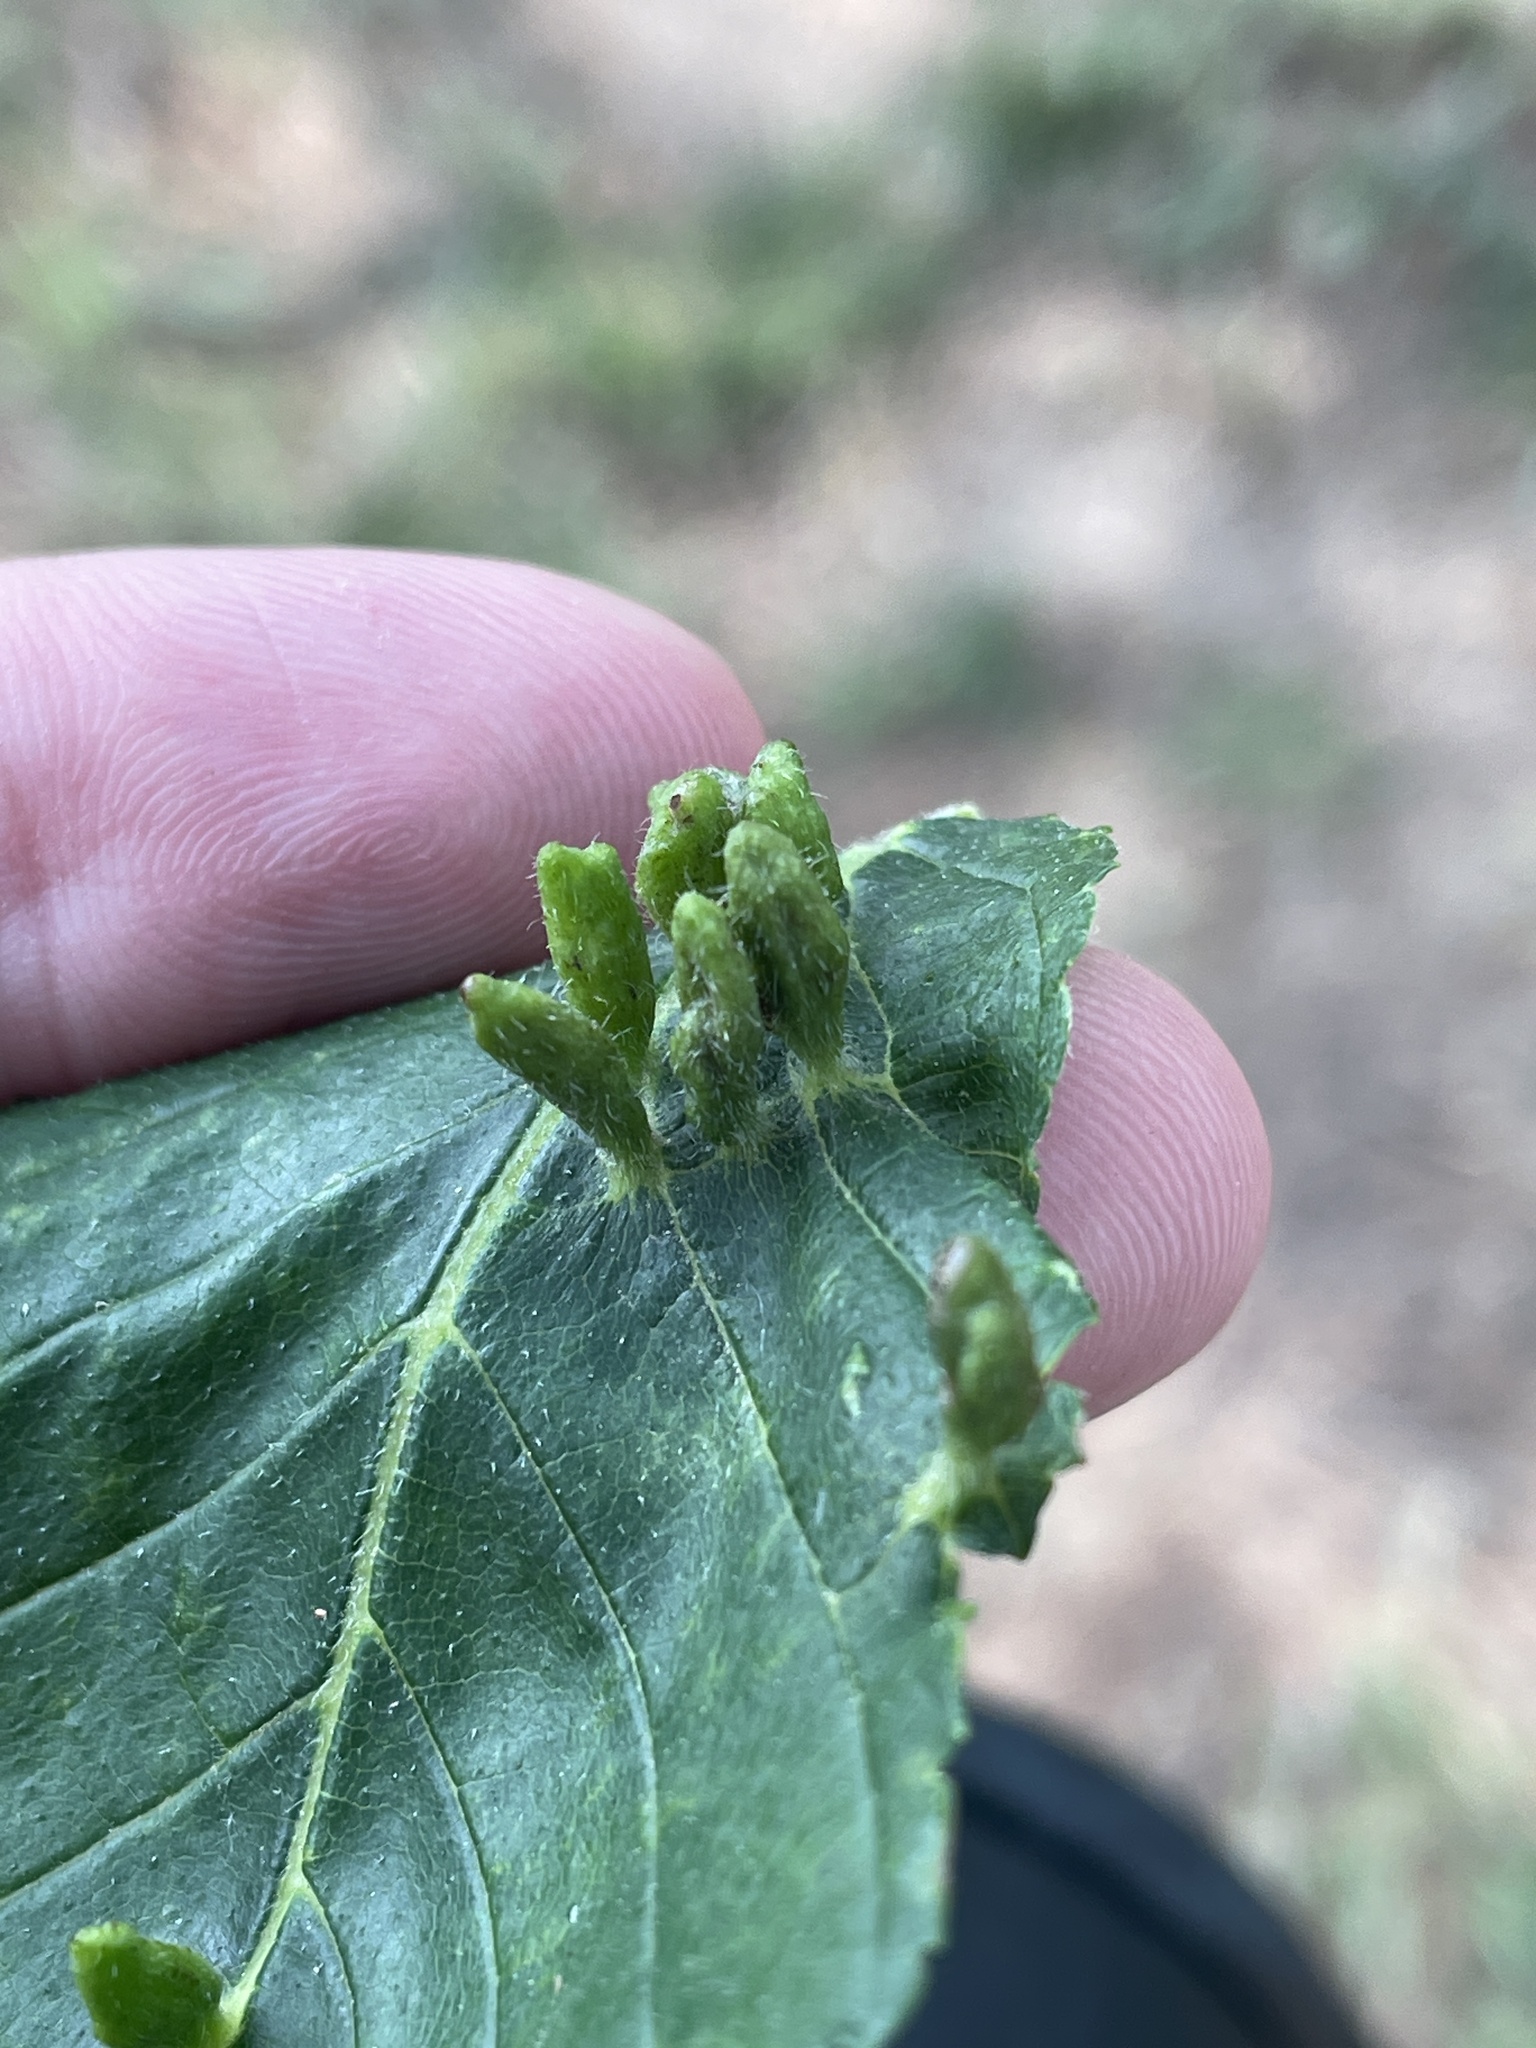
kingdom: Animalia
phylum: Arthropoda
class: Arachnida
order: Trombidiformes
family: Eriophyidae
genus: Aceria
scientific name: Aceria
